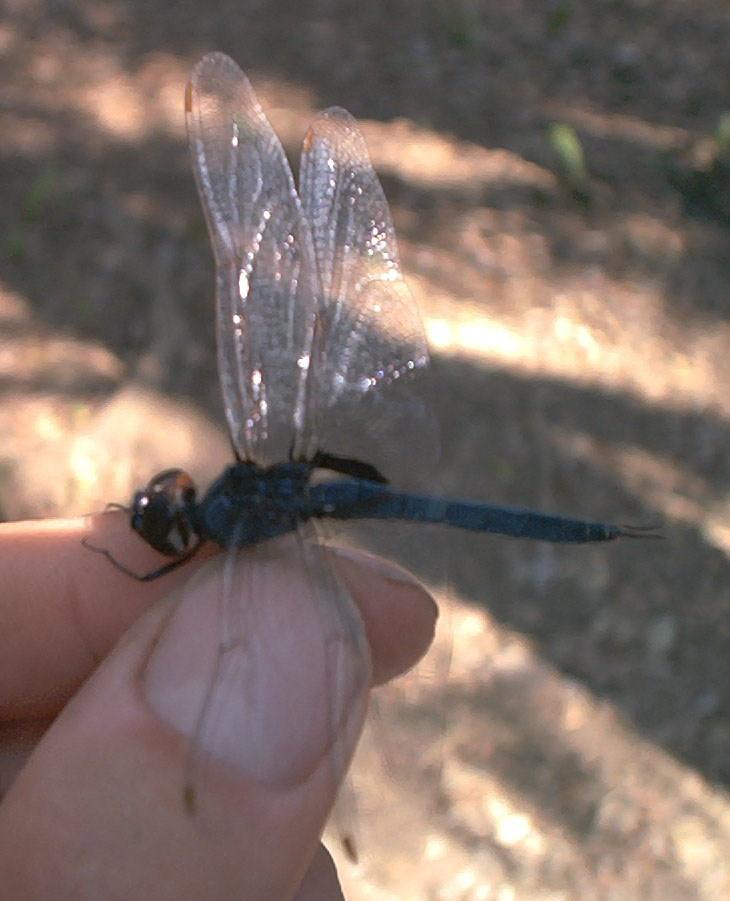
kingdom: Animalia
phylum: Arthropoda
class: Insecta
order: Odonata
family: Libellulidae
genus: Tramea
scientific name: Tramea binotata
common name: Sooty saddlebags
